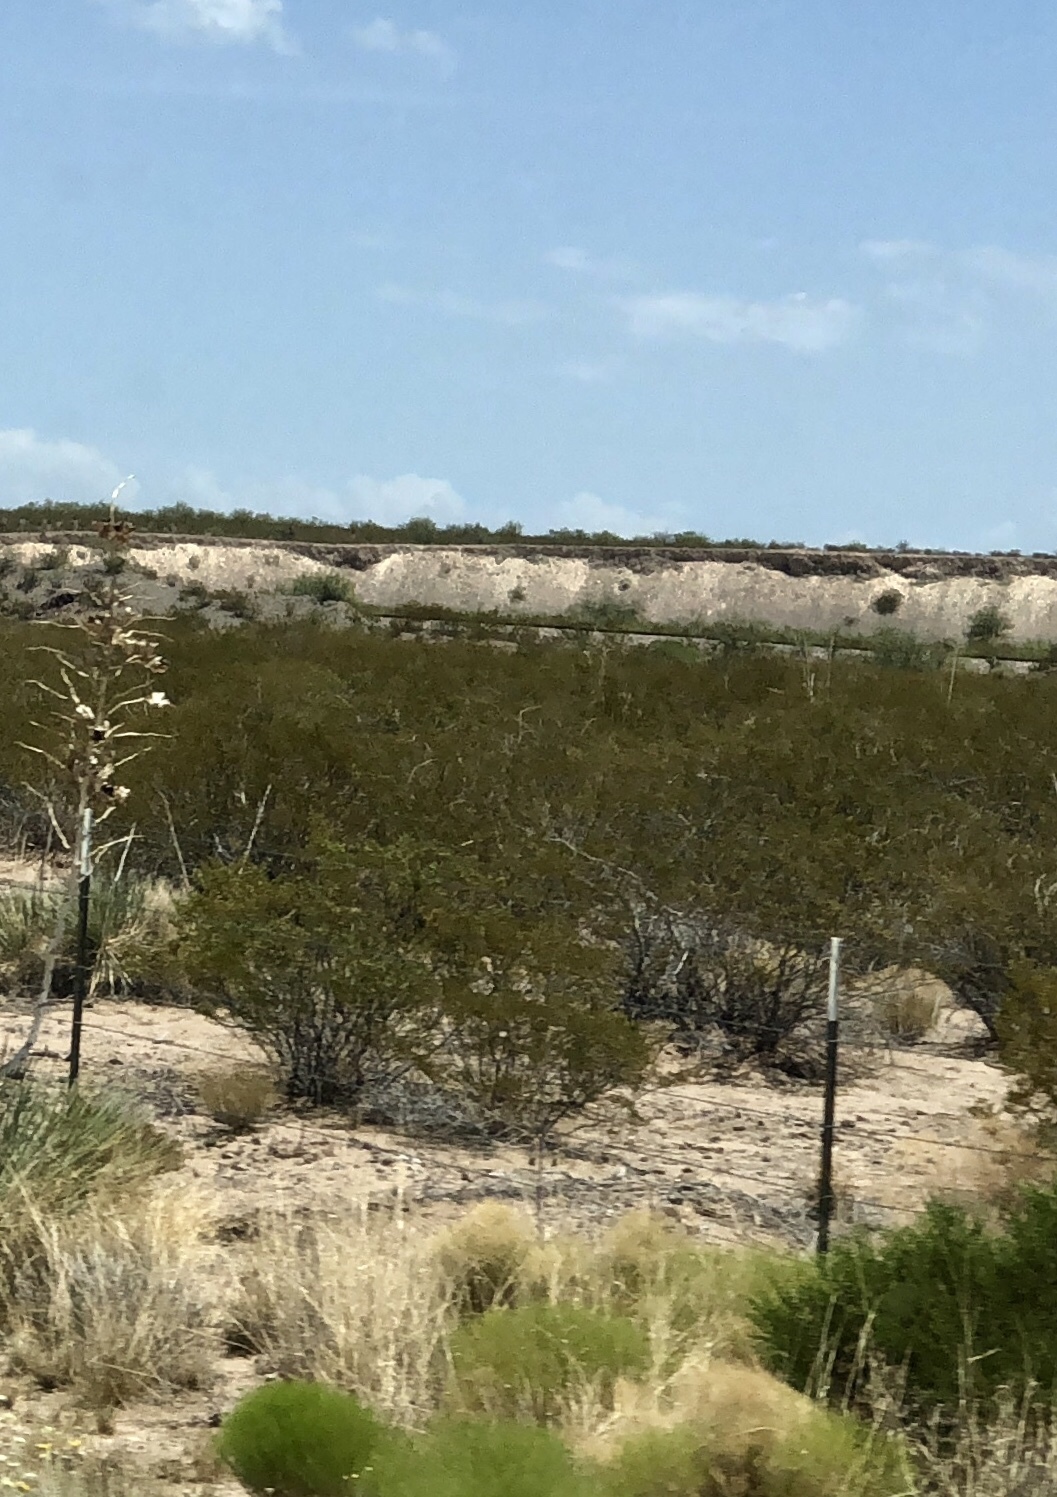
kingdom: Plantae
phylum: Tracheophyta
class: Magnoliopsida
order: Zygophyllales
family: Zygophyllaceae
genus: Larrea
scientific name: Larrea tridentata
